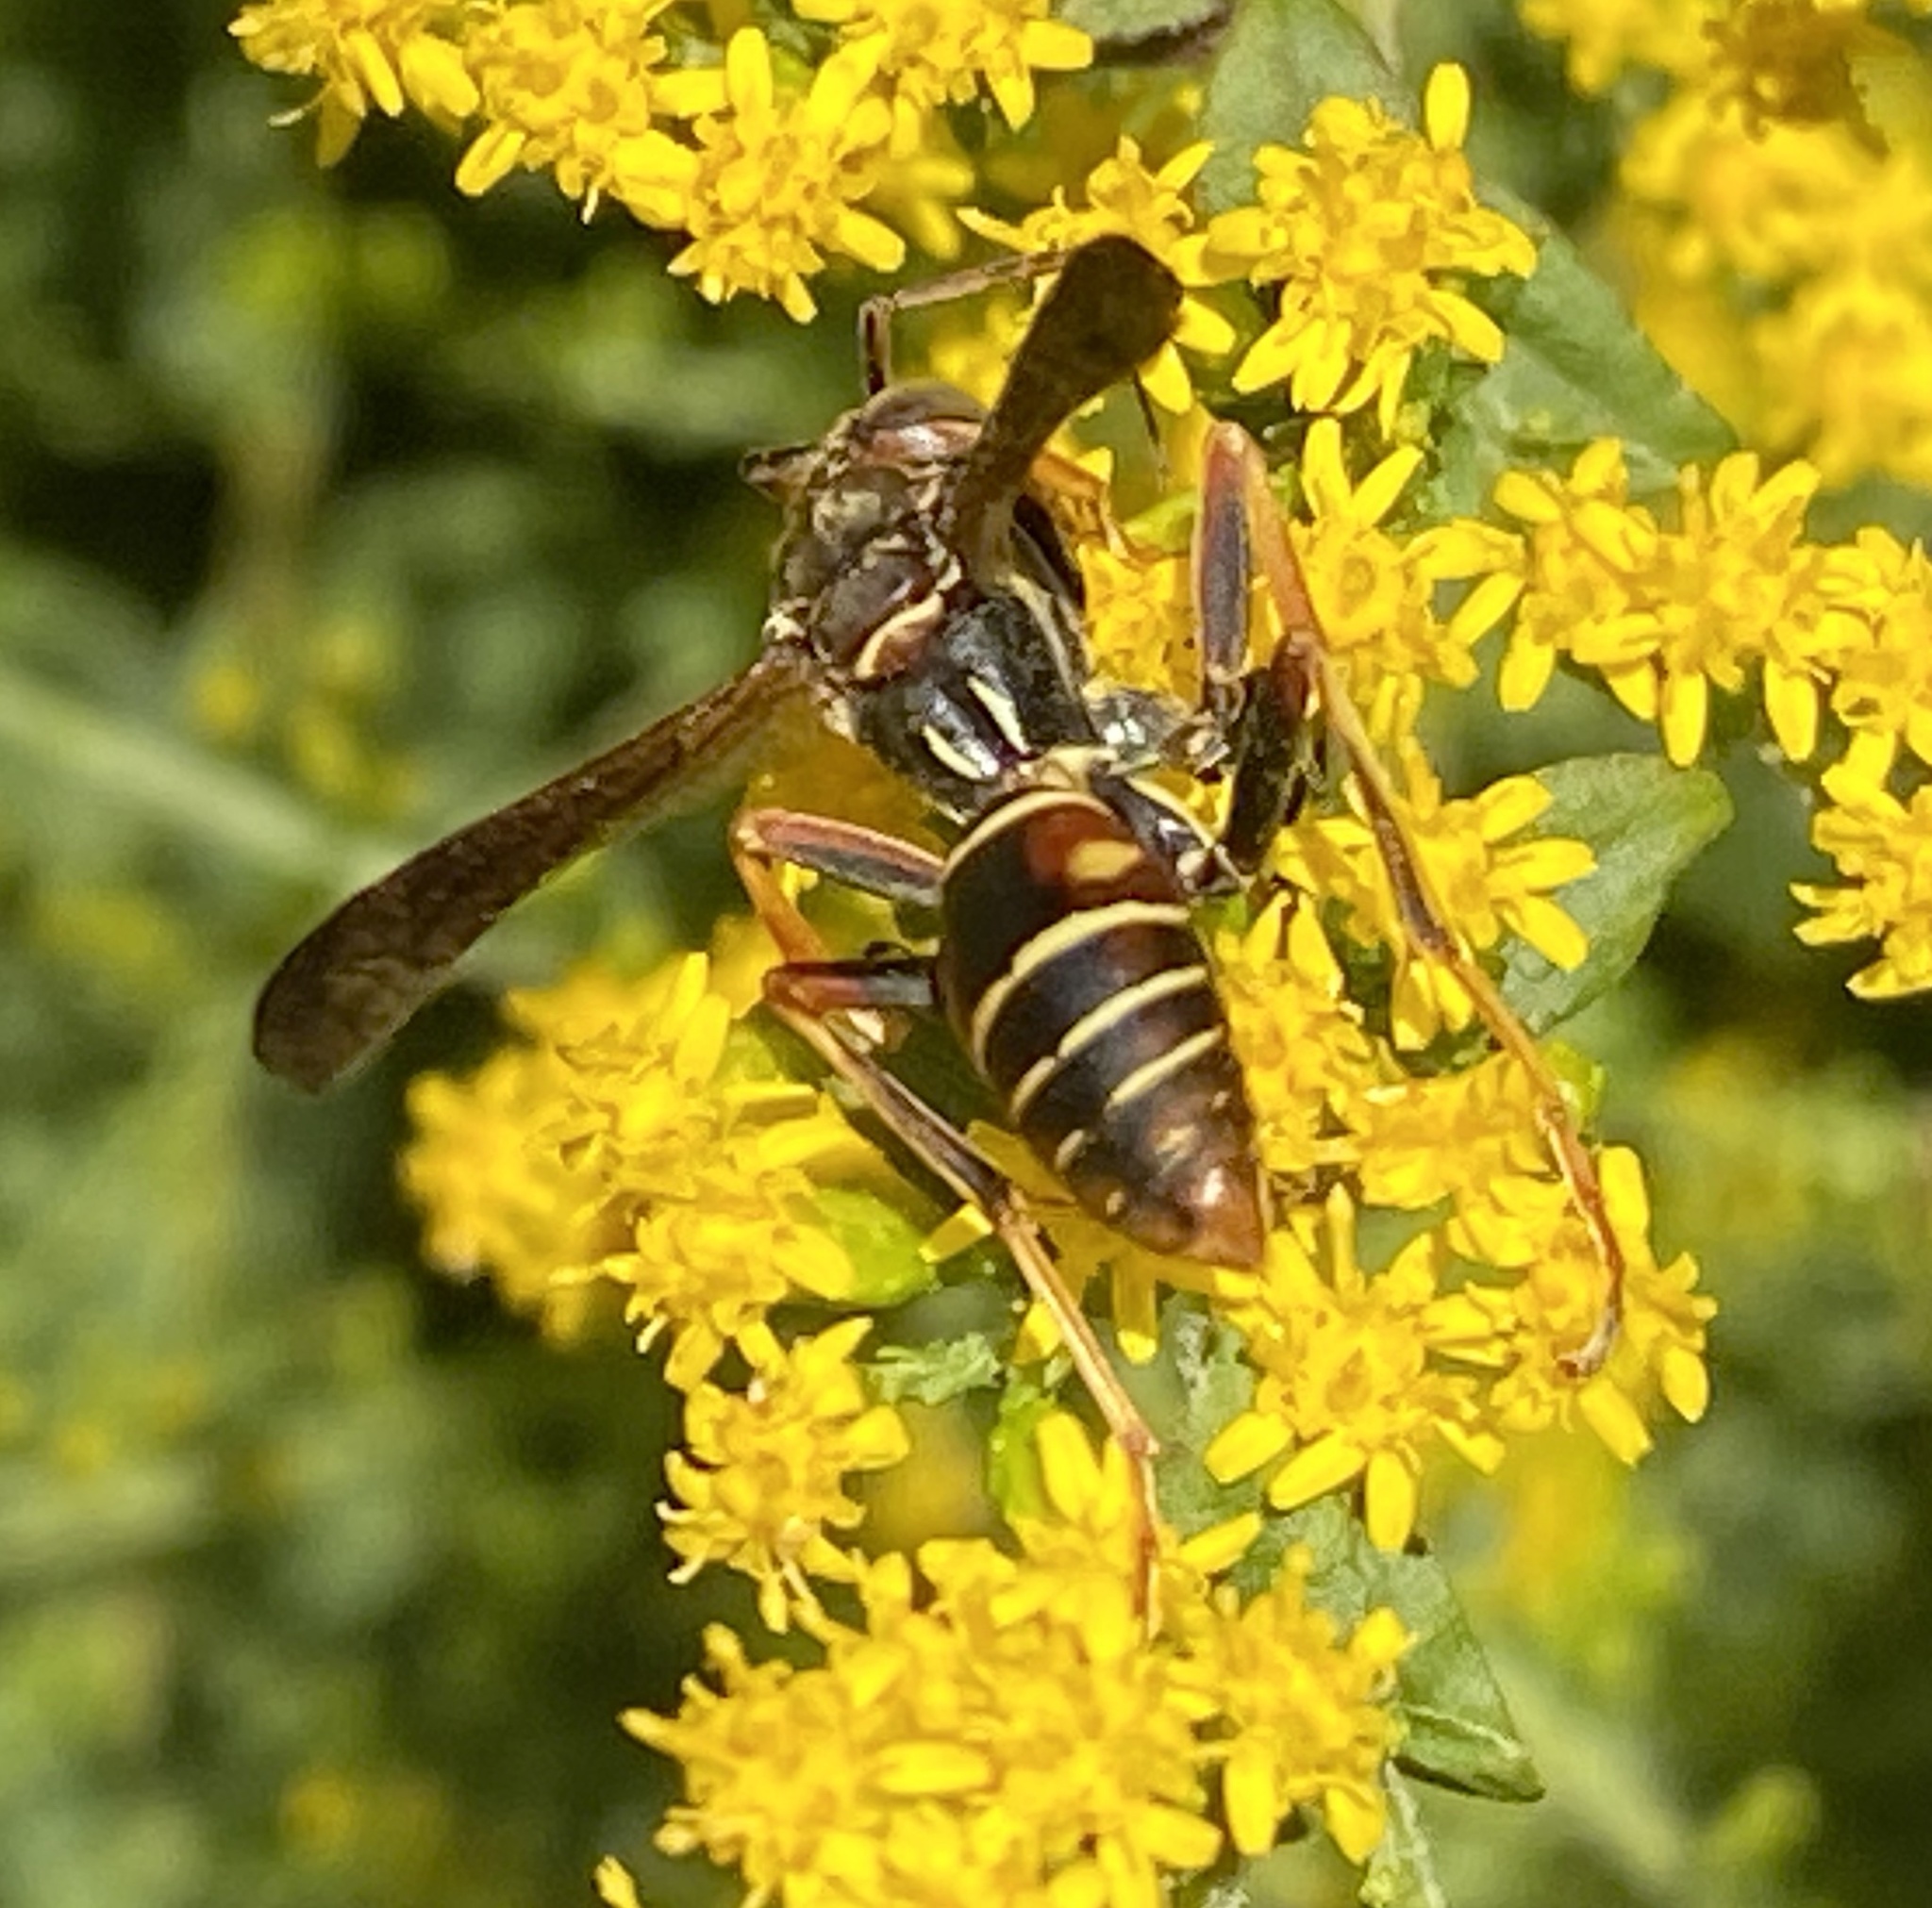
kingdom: Animalia
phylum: Arthropoda
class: Insecta
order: Hymenoptera
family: Eumenidae
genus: Polistes
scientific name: Polistes fuscatus
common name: Dark paper wasp
